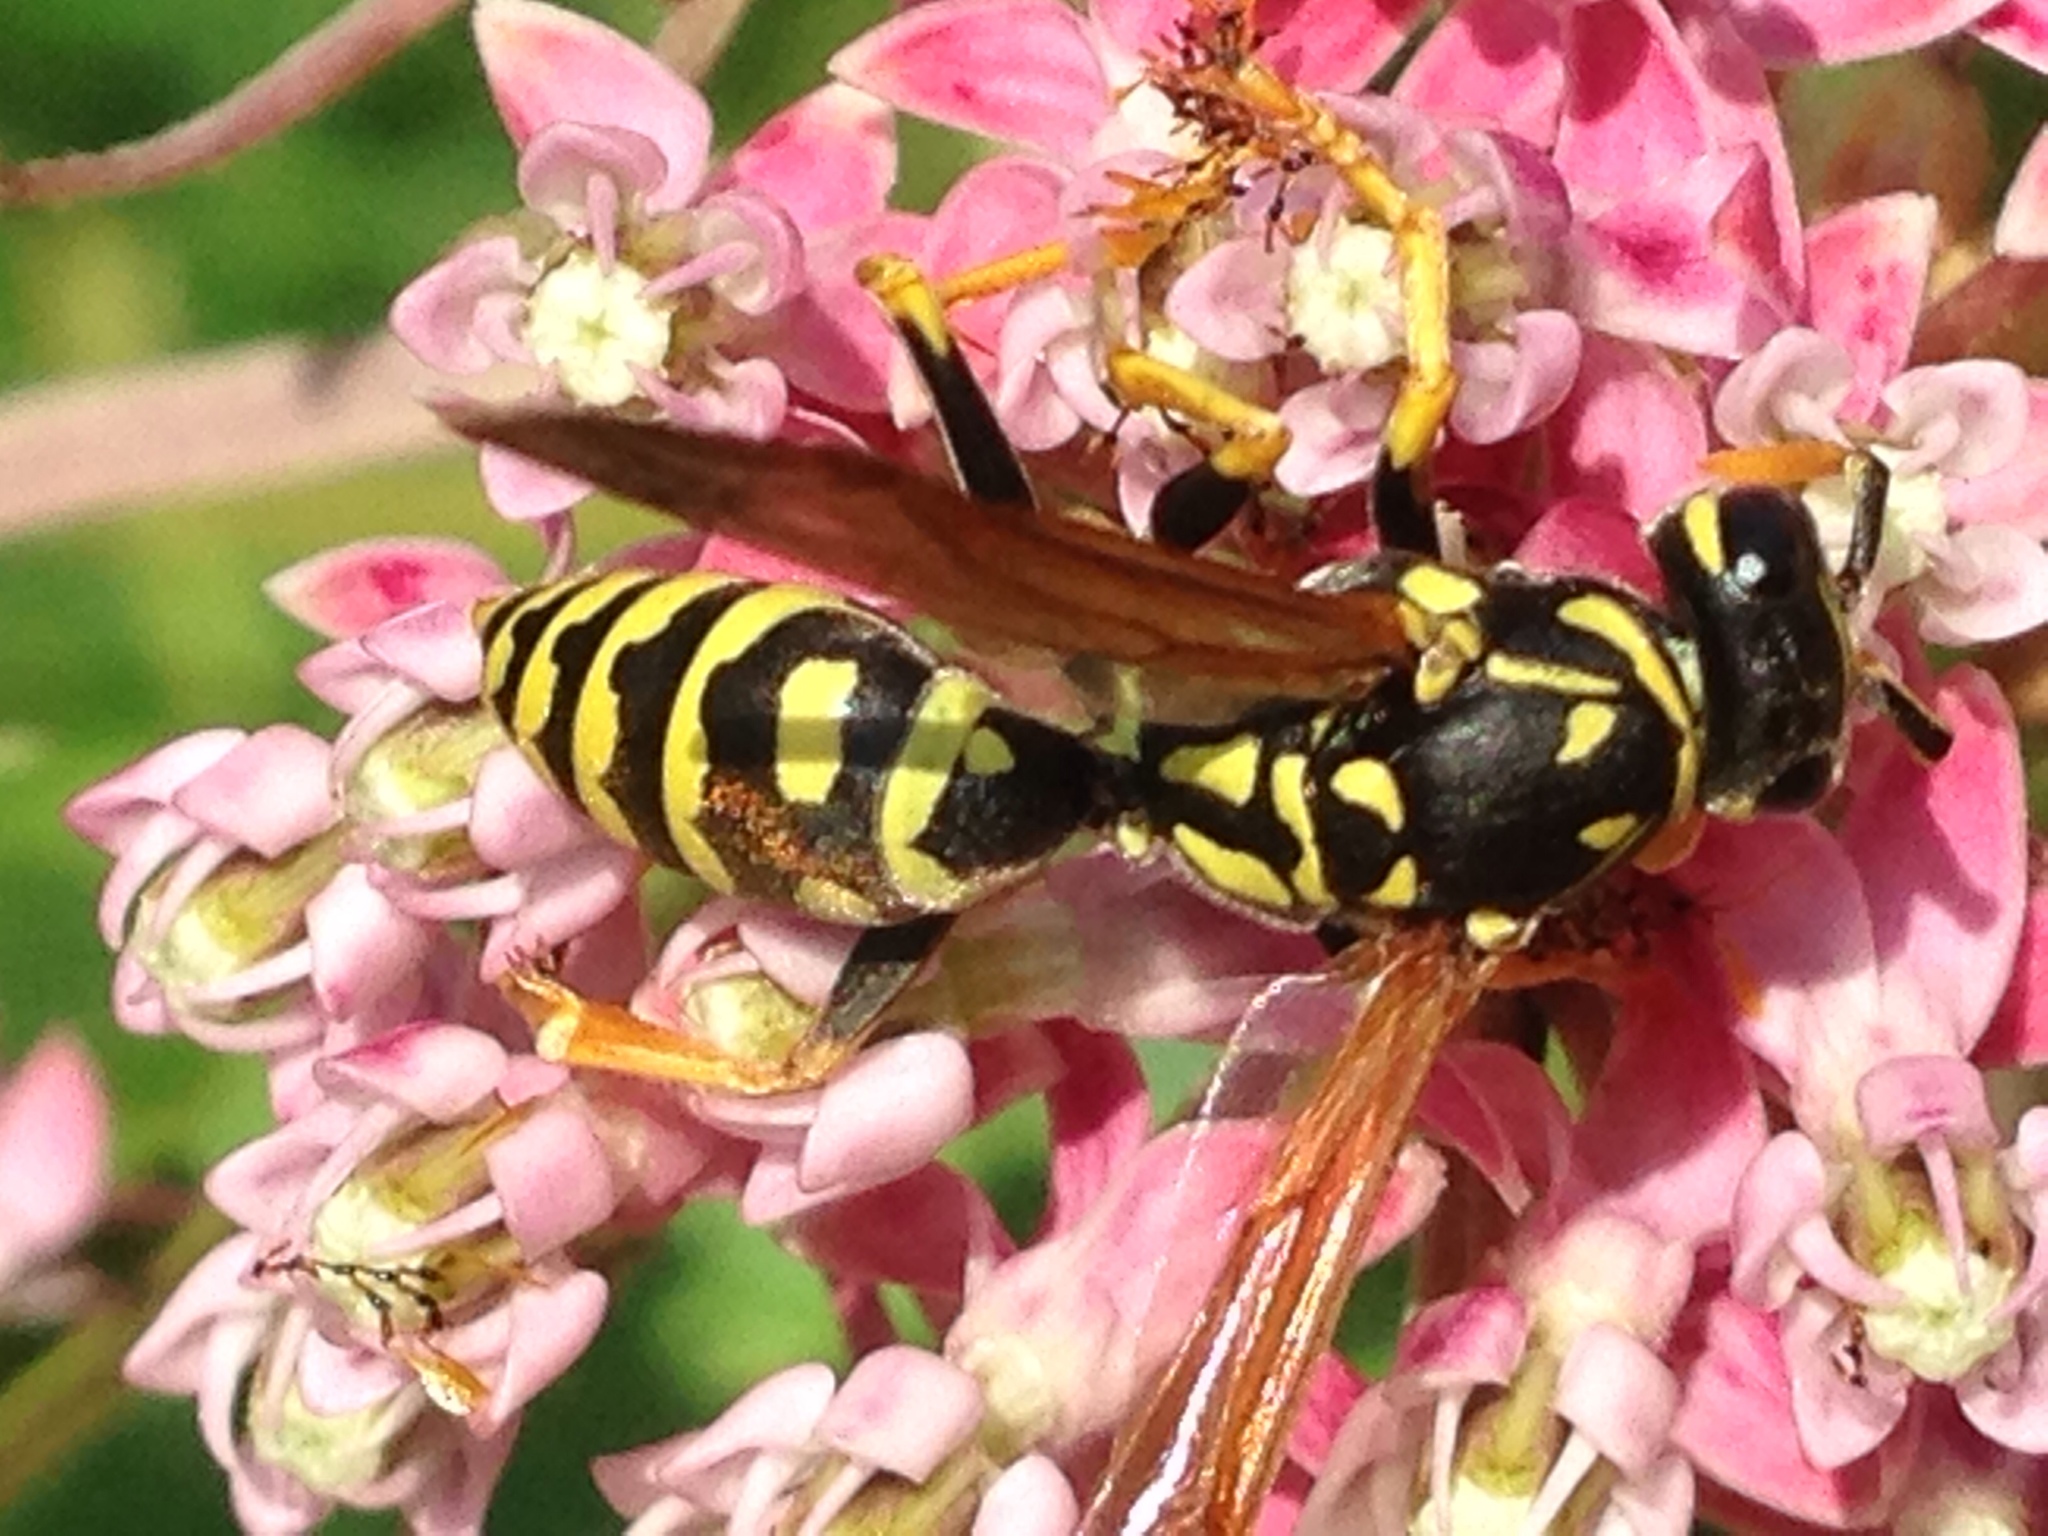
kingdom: Animalia
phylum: Arthropoda
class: Insecta
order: Hymenoptera
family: Eumenidae
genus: Polistes
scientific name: Polistes dominula
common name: Paper wasp
